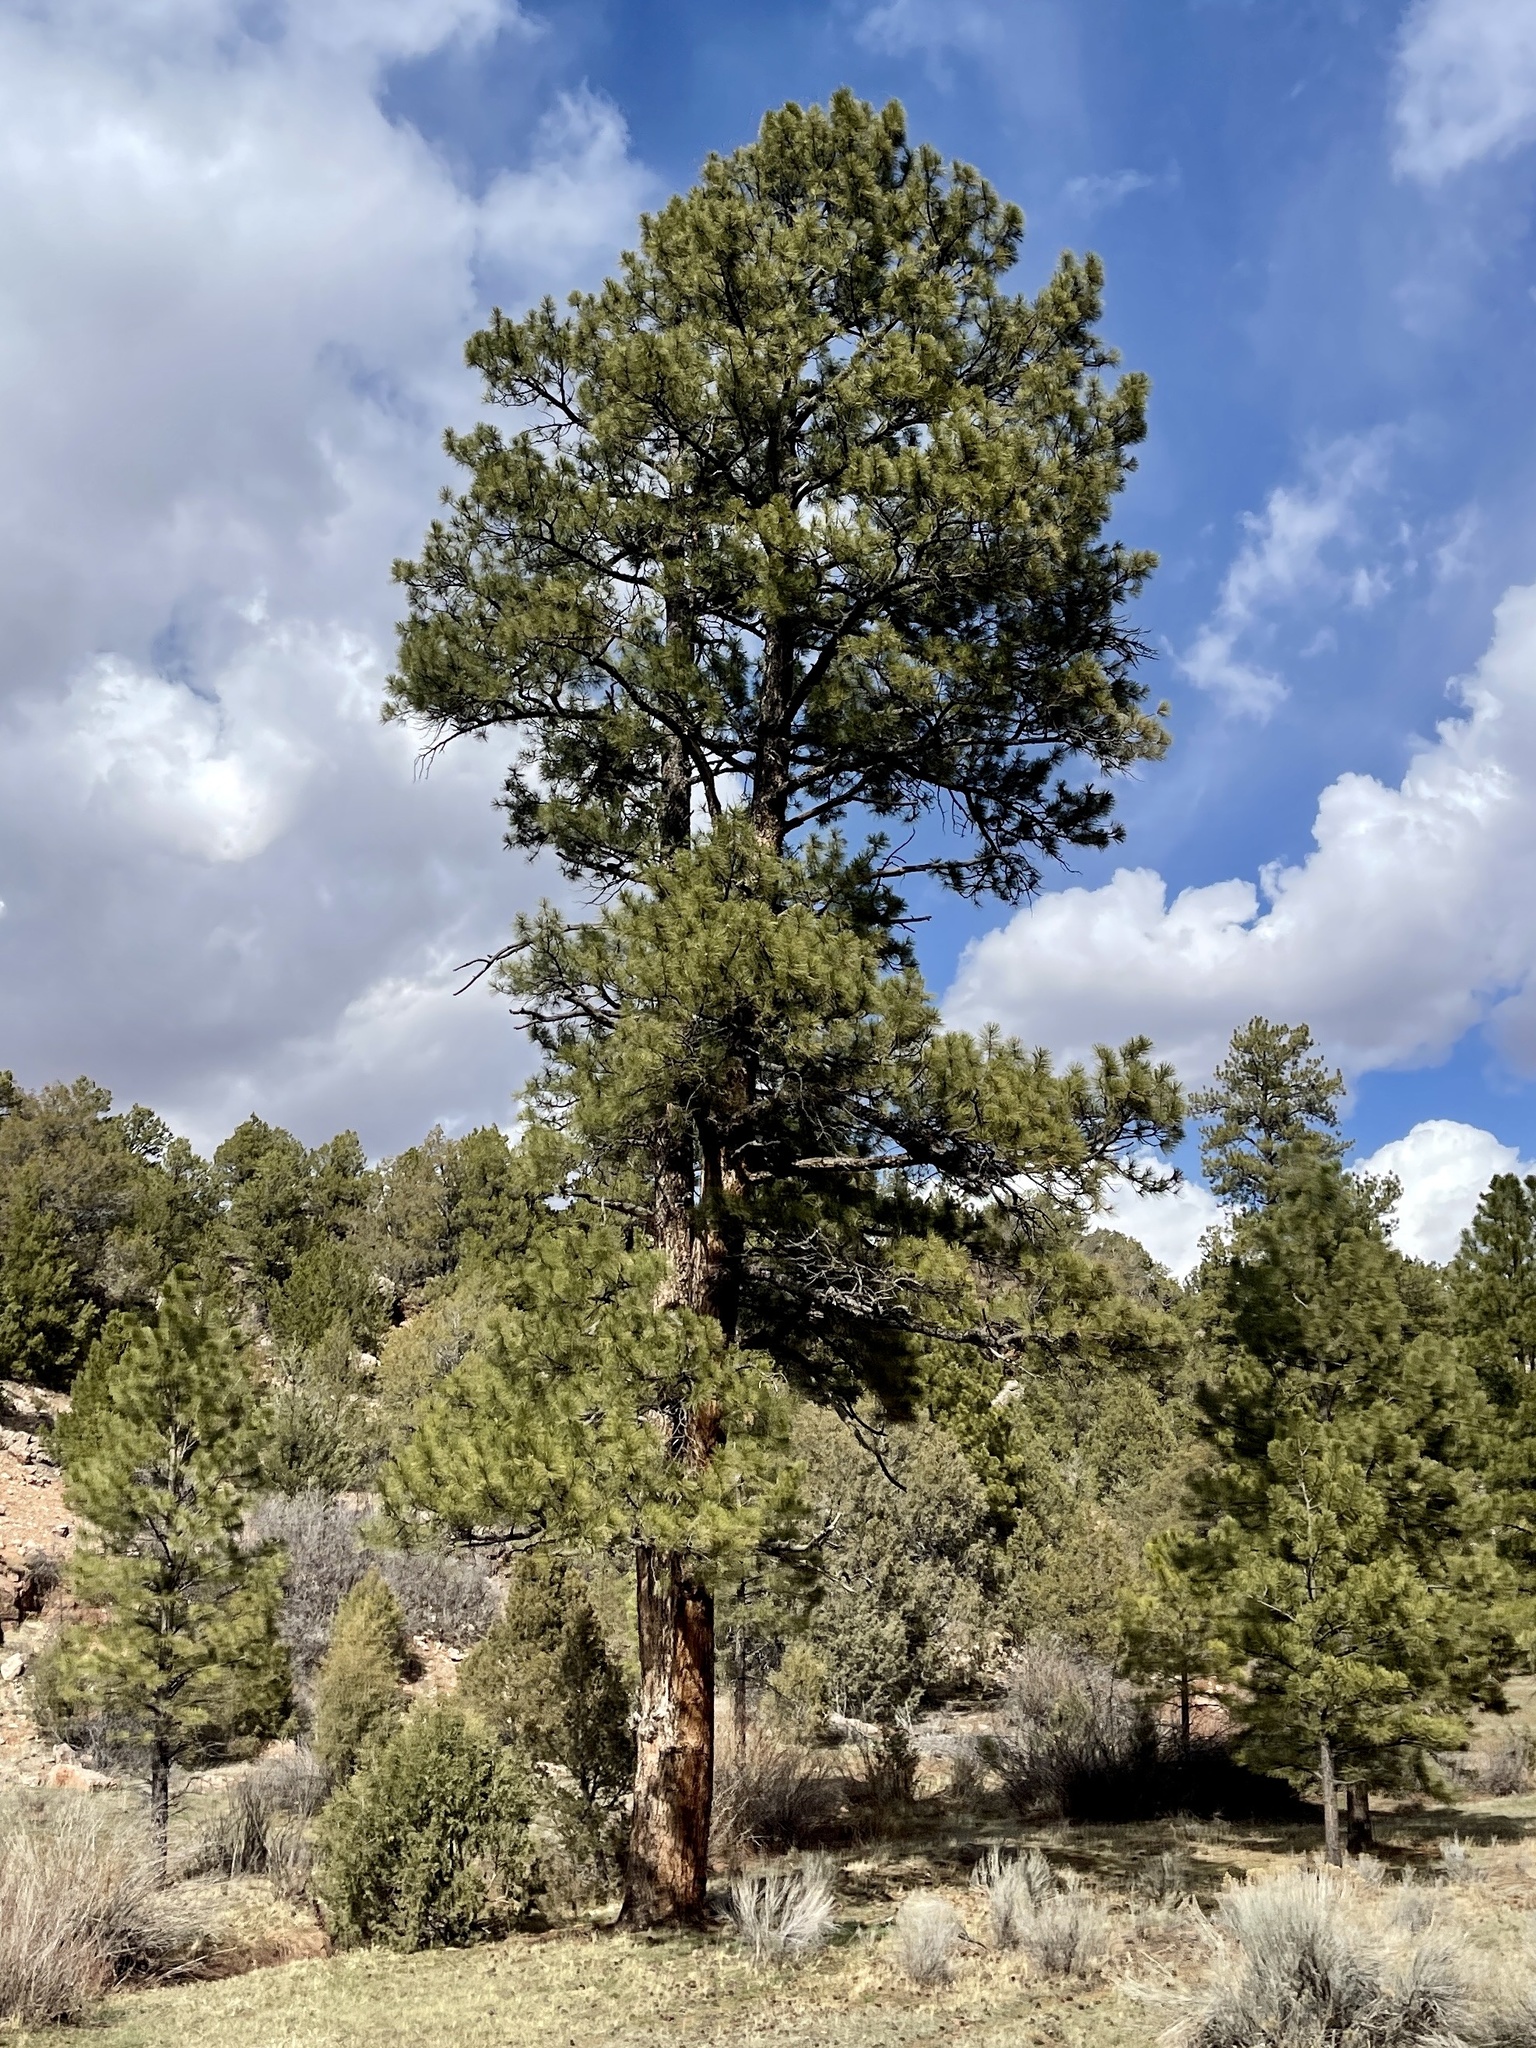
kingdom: Plantae
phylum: Tracheophyta
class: Pinopsida
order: Pinales
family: Pinaceae
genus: Pinus
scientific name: Pinus ponderosa
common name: Western yellow-pine
